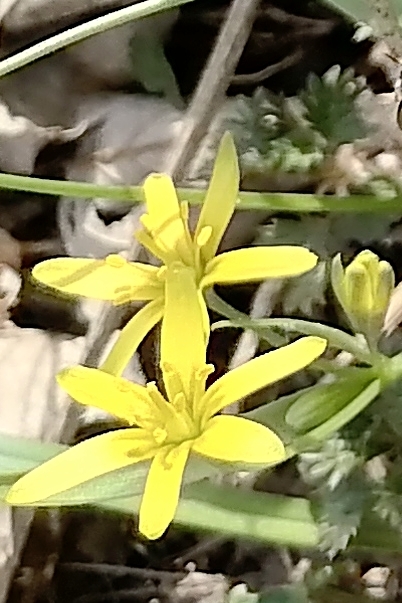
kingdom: Plantae
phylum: Tracheophyta
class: Liliopsida
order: Liliales
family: Liliaceae
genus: Gagea
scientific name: Gagea lutea
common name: Yellow star-of-bethlehem
